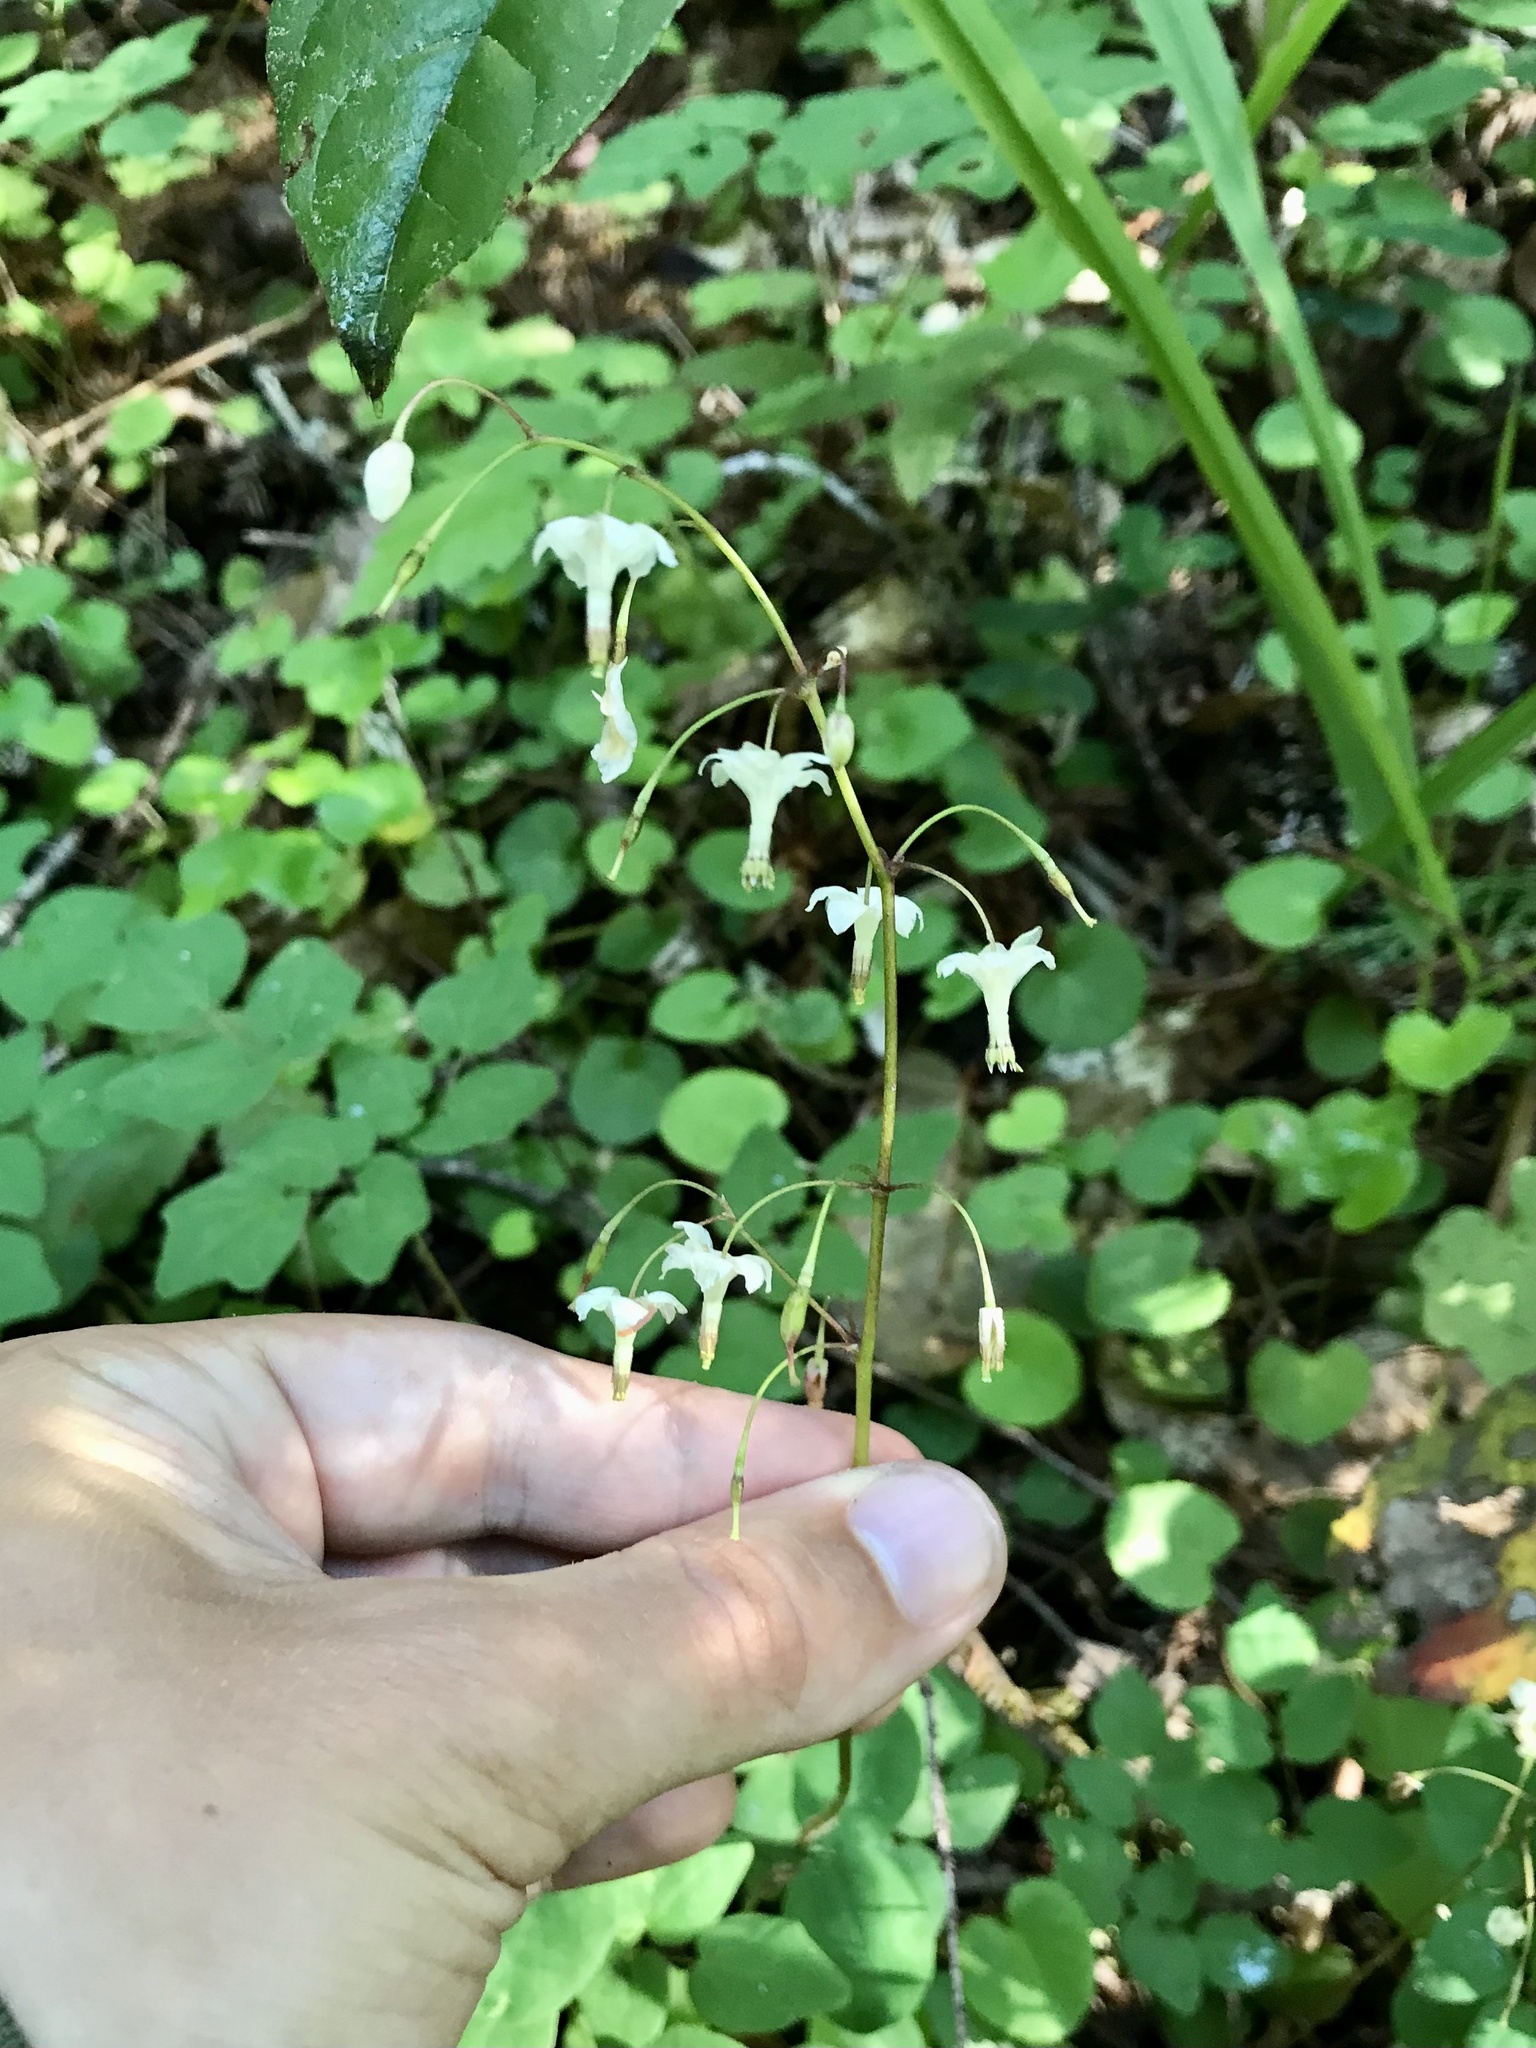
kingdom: Plantae
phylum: Tracheophyta
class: Magnoliopsida
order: Ranunculales
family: Berberidaceae
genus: Vancouveria
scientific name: Vancouveria hexandra
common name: Northern inside-out-flower
